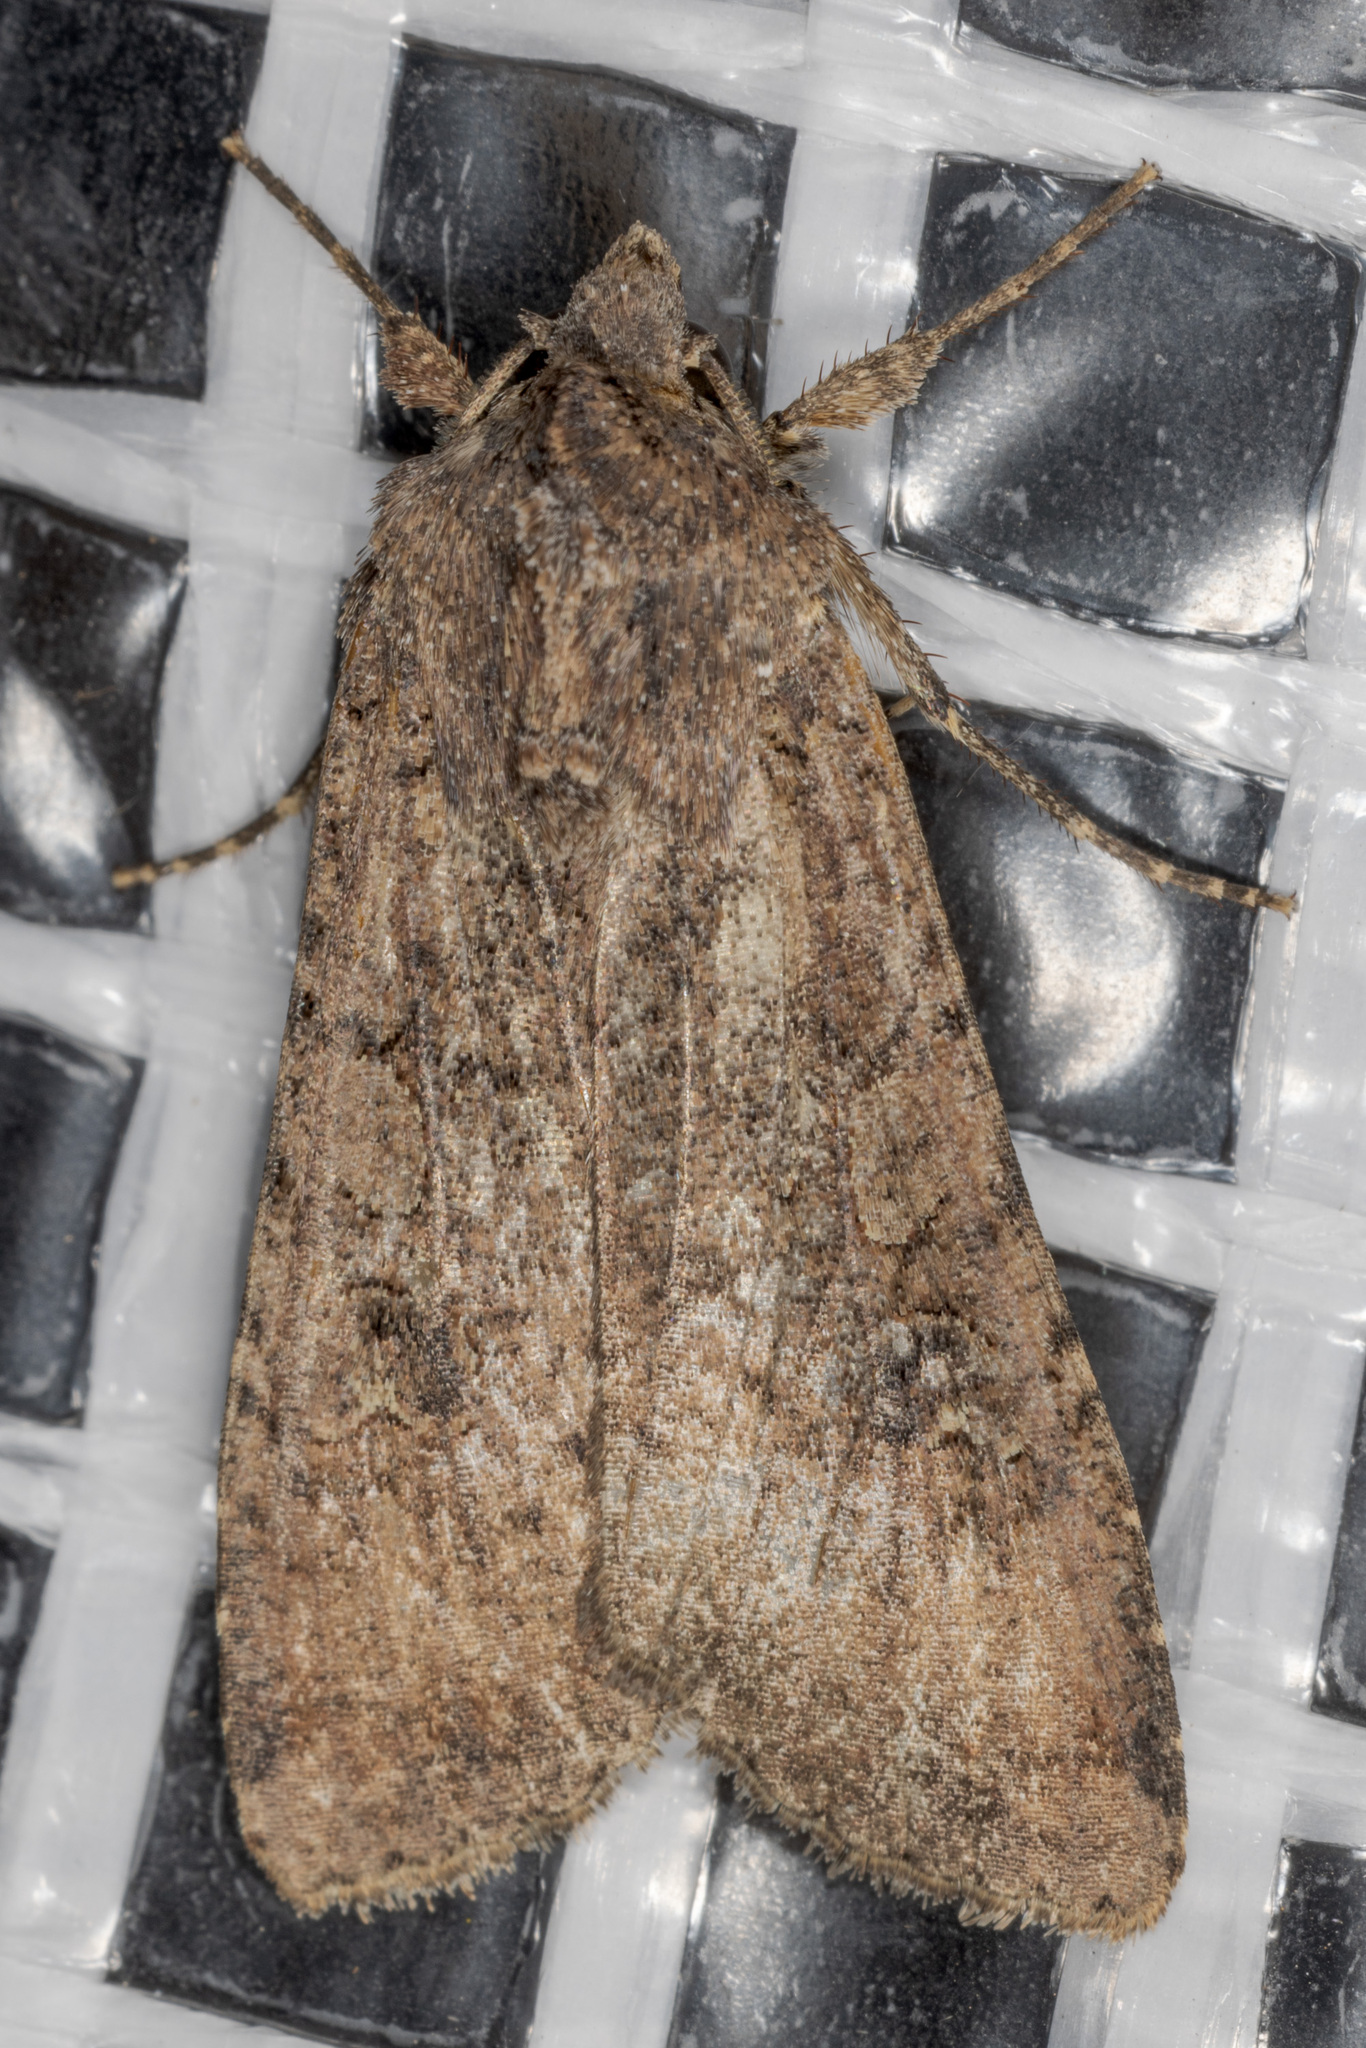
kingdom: Animalia
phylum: Arthropoda
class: Insecta
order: Lepidoptera
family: Noctuidae
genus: Peridroma
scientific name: Peridroma saucia
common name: Pearly underwing
